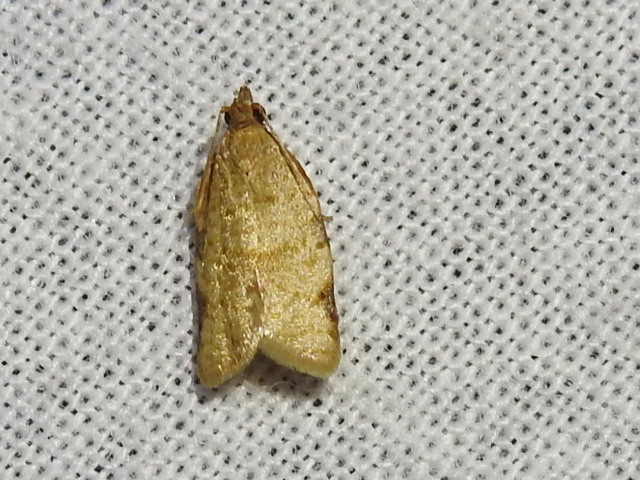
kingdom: Animalia
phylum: Arthropoda
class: Insecta
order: Lepidoptera
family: Tortricidae
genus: Clepsis
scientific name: Clepsis virescana
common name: Greenish apple moth
